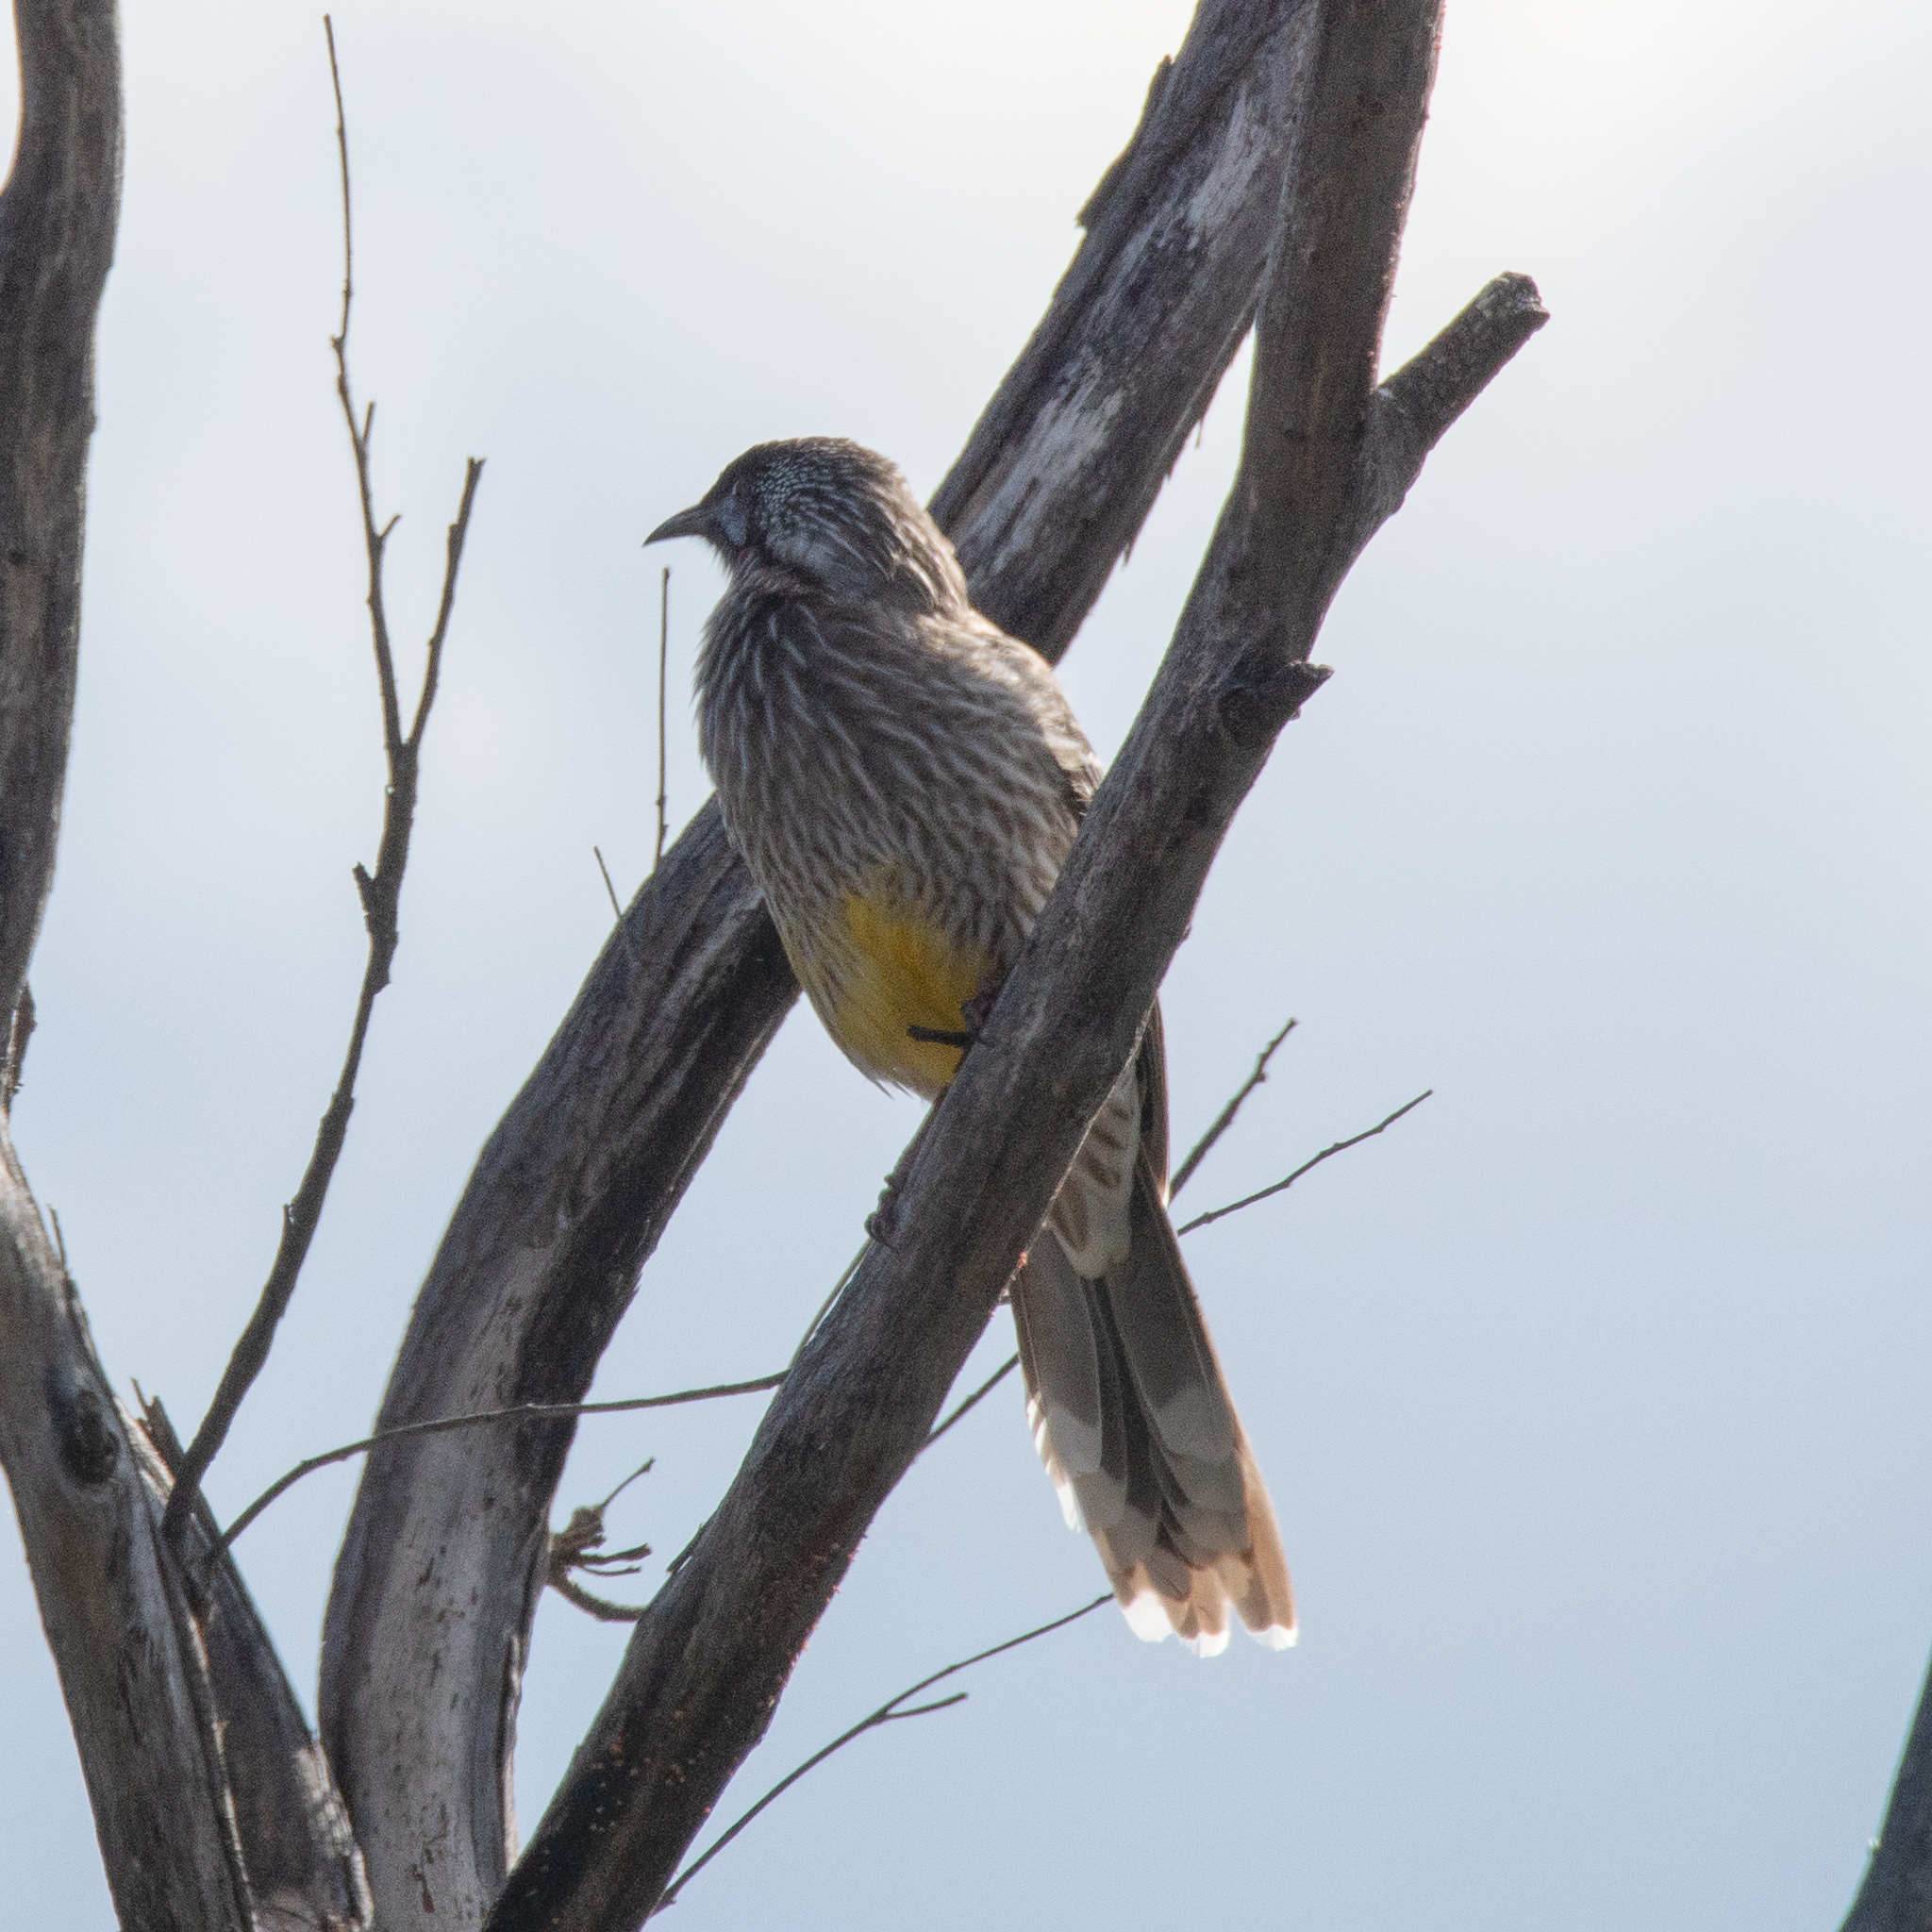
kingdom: Animalia
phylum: Chordata
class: Aves
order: Passeriformes
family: Meliphagidae
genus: Anthochaera
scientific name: Anthochaera carunculata
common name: Red wattlebird
